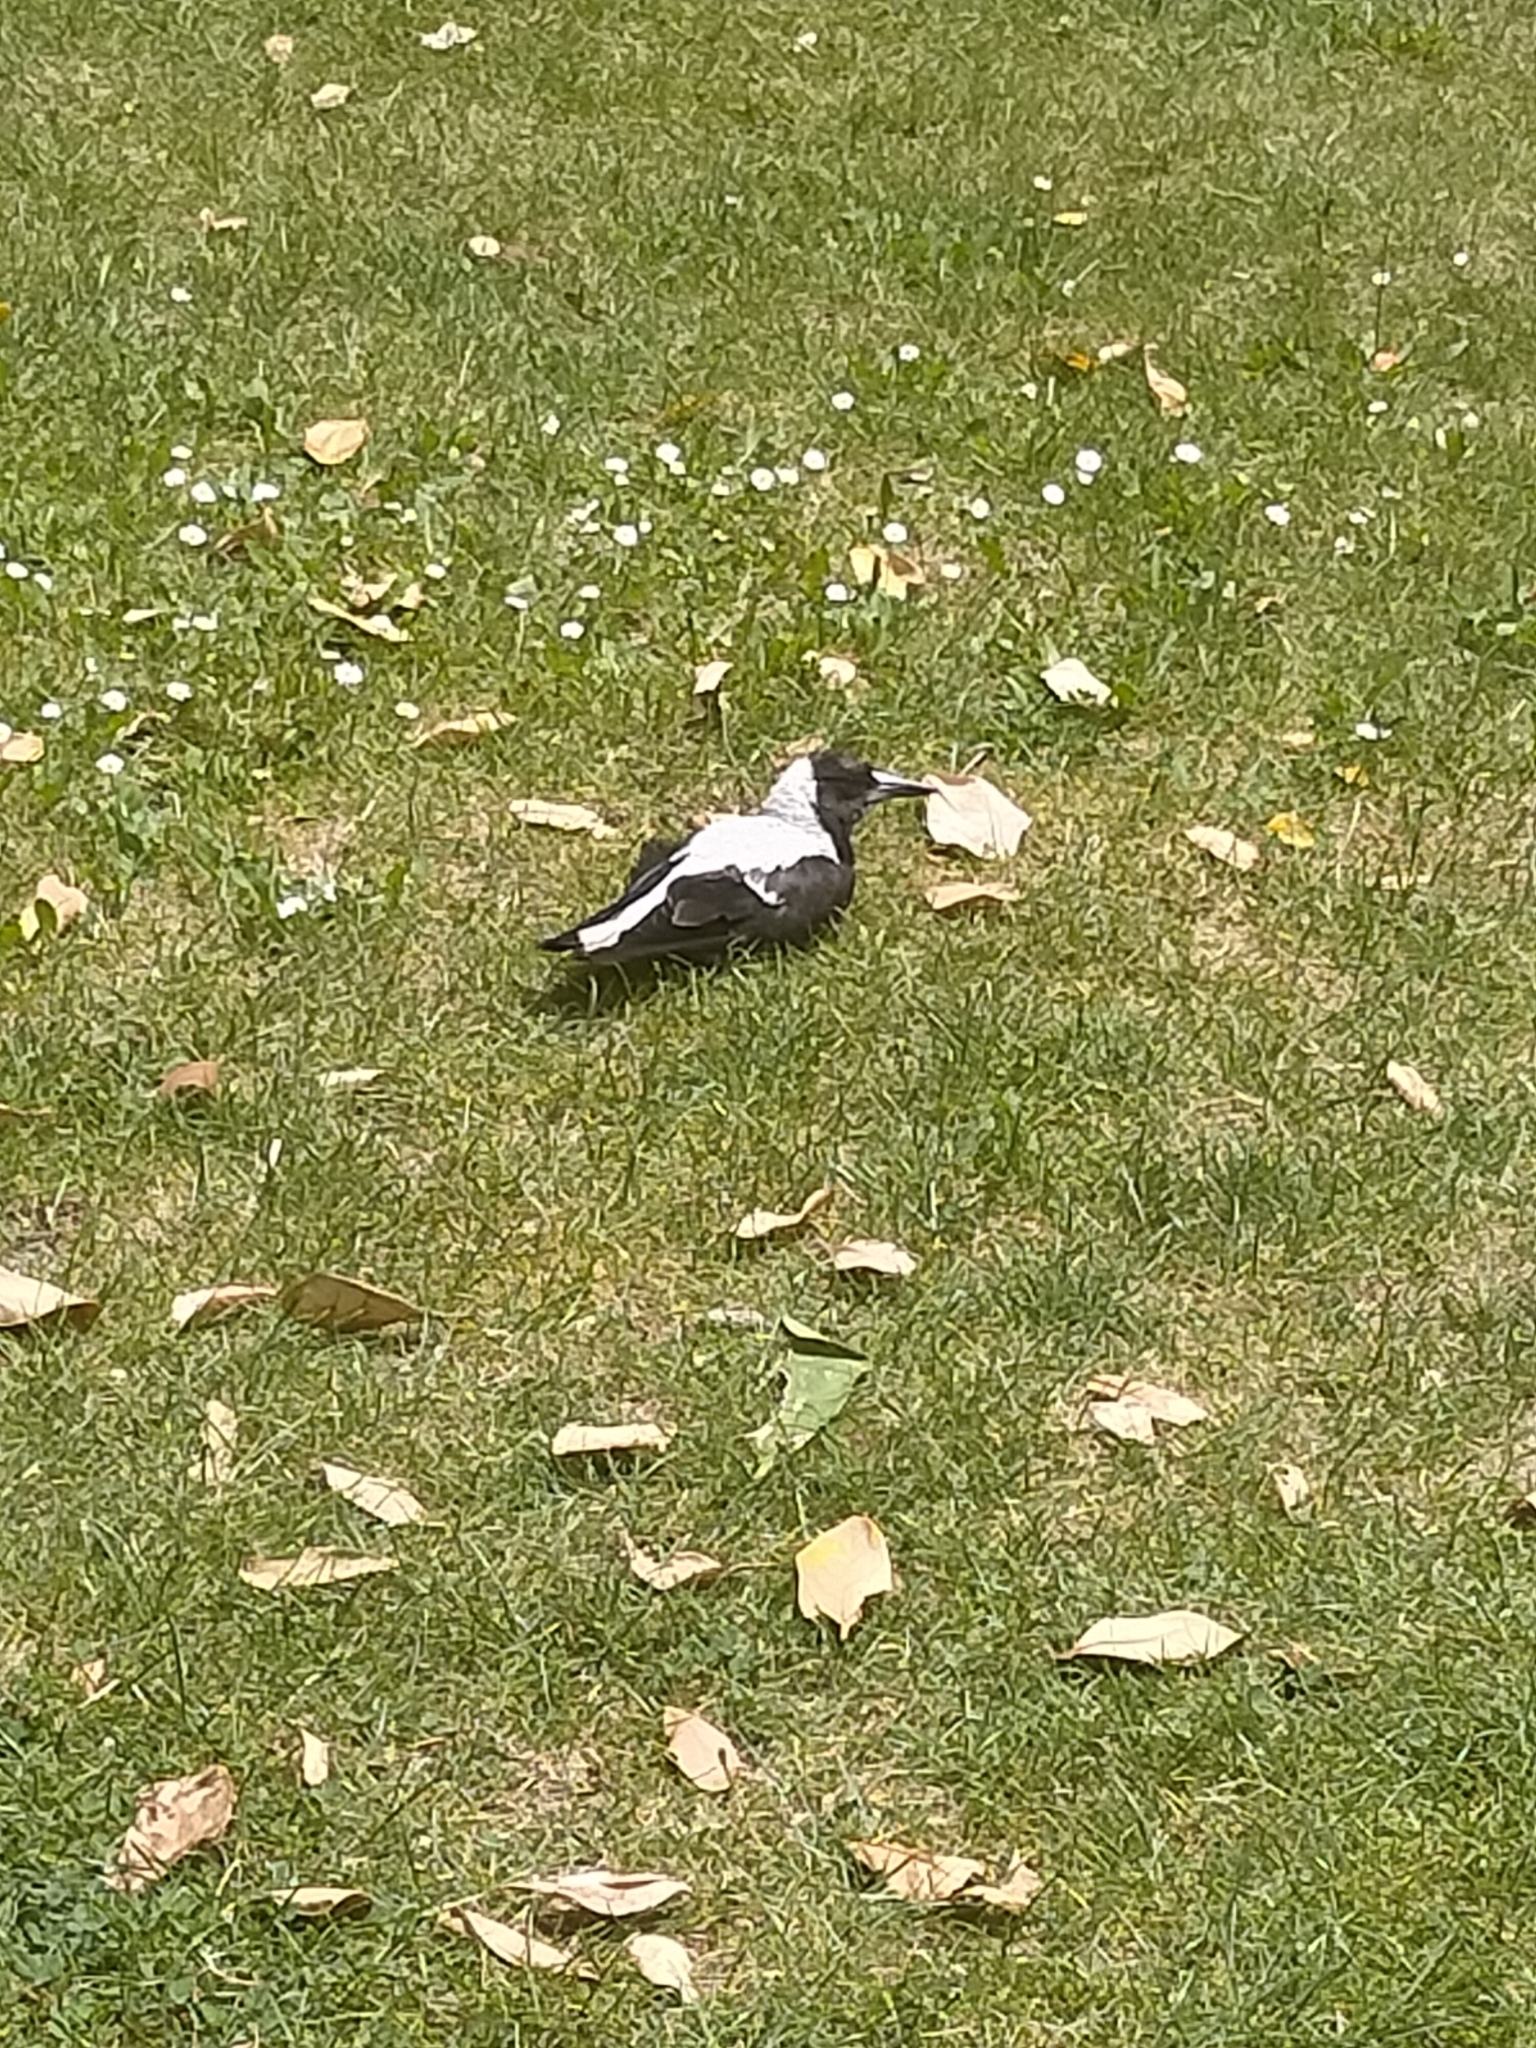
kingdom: Animalia
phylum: Chordata
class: Aves
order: Passeriformes
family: Cracticidae
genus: Gymnorhina
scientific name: Gymnorhina tibicen
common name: Australian magpie
